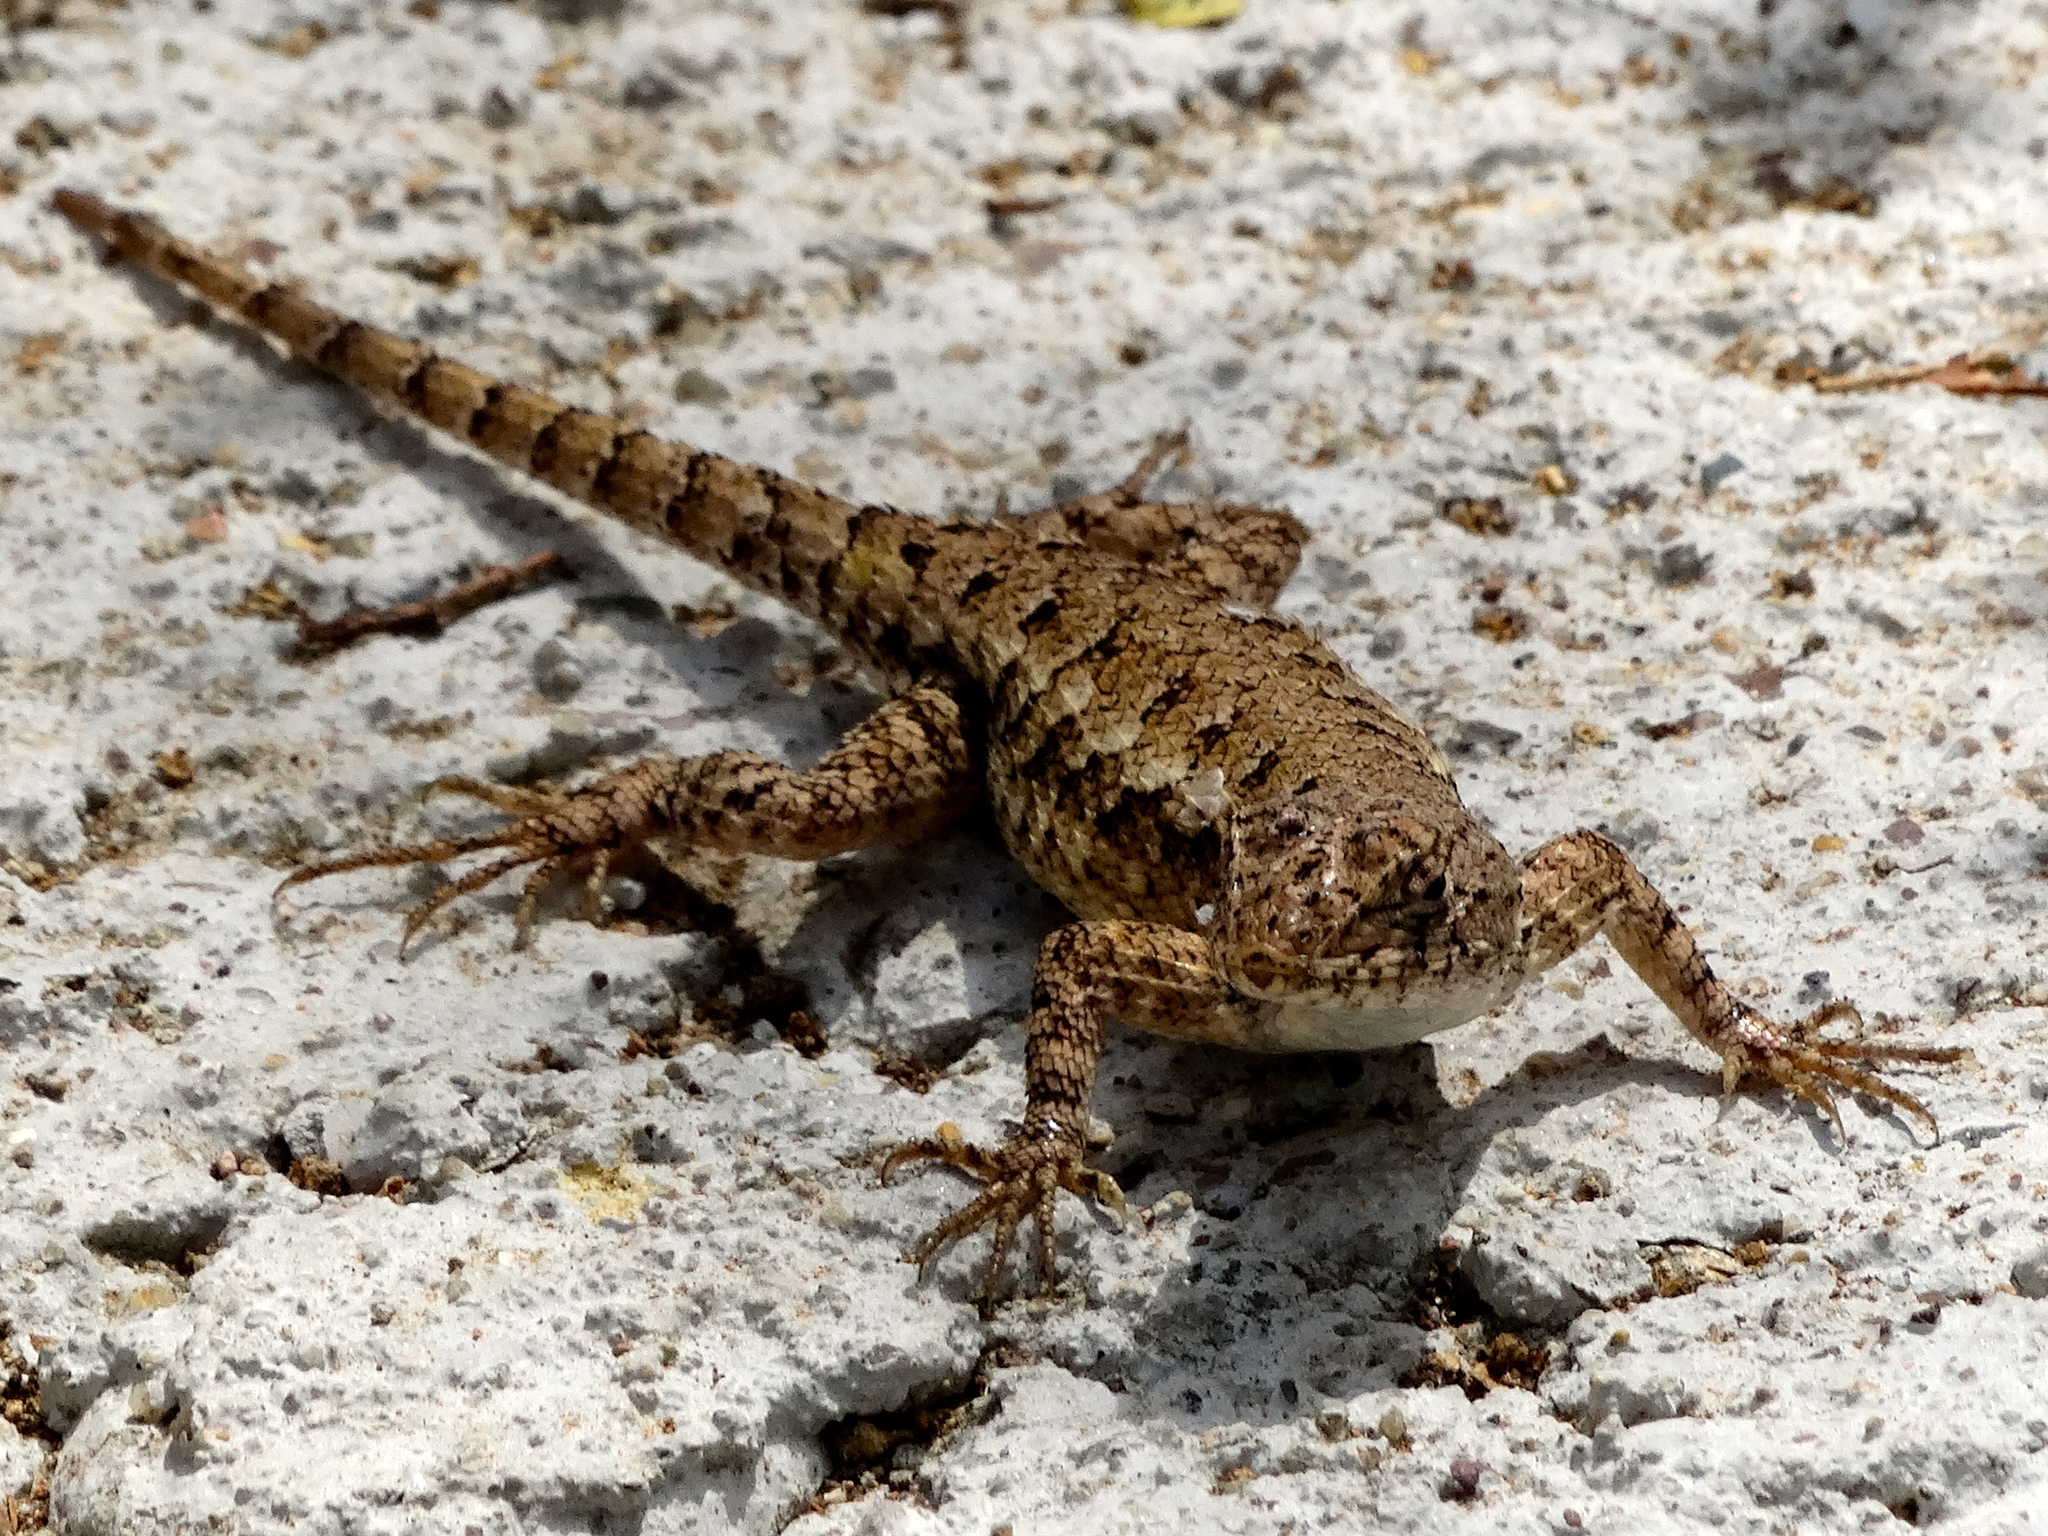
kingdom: Animalia
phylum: Chordata
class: Squamata
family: Phrynosomatidae
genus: Sceloporus
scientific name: Sceloporus nelsoni
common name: Nelson's spiny lizard
